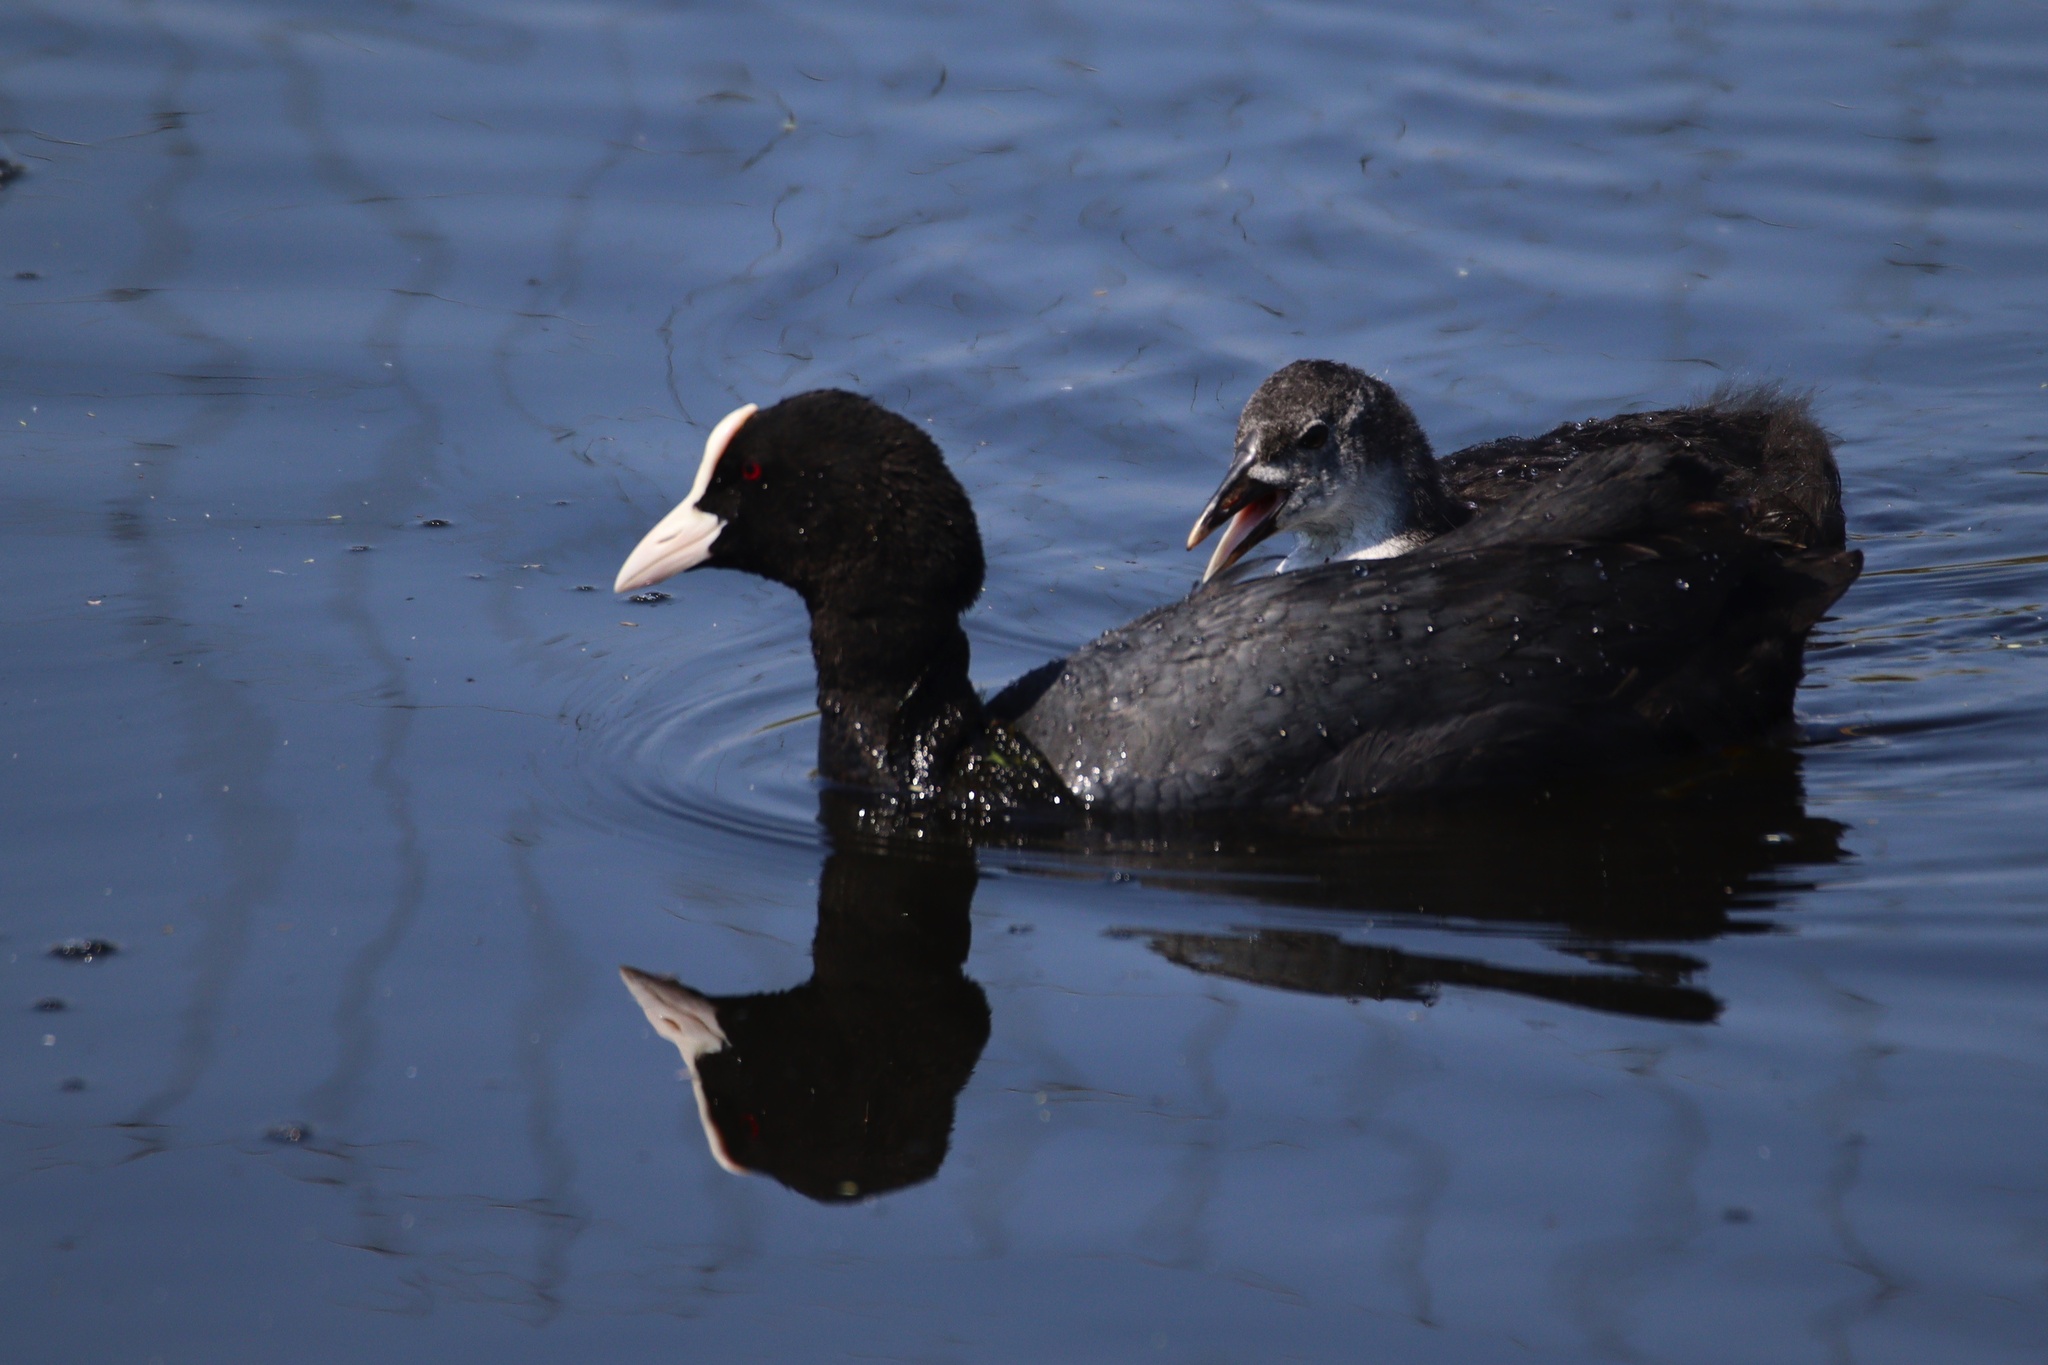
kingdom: Animalia
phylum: Chordata
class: Aves
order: Gruiformes
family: Rallidae
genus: Fulica
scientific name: Fulica atra
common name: Eurasian coot
